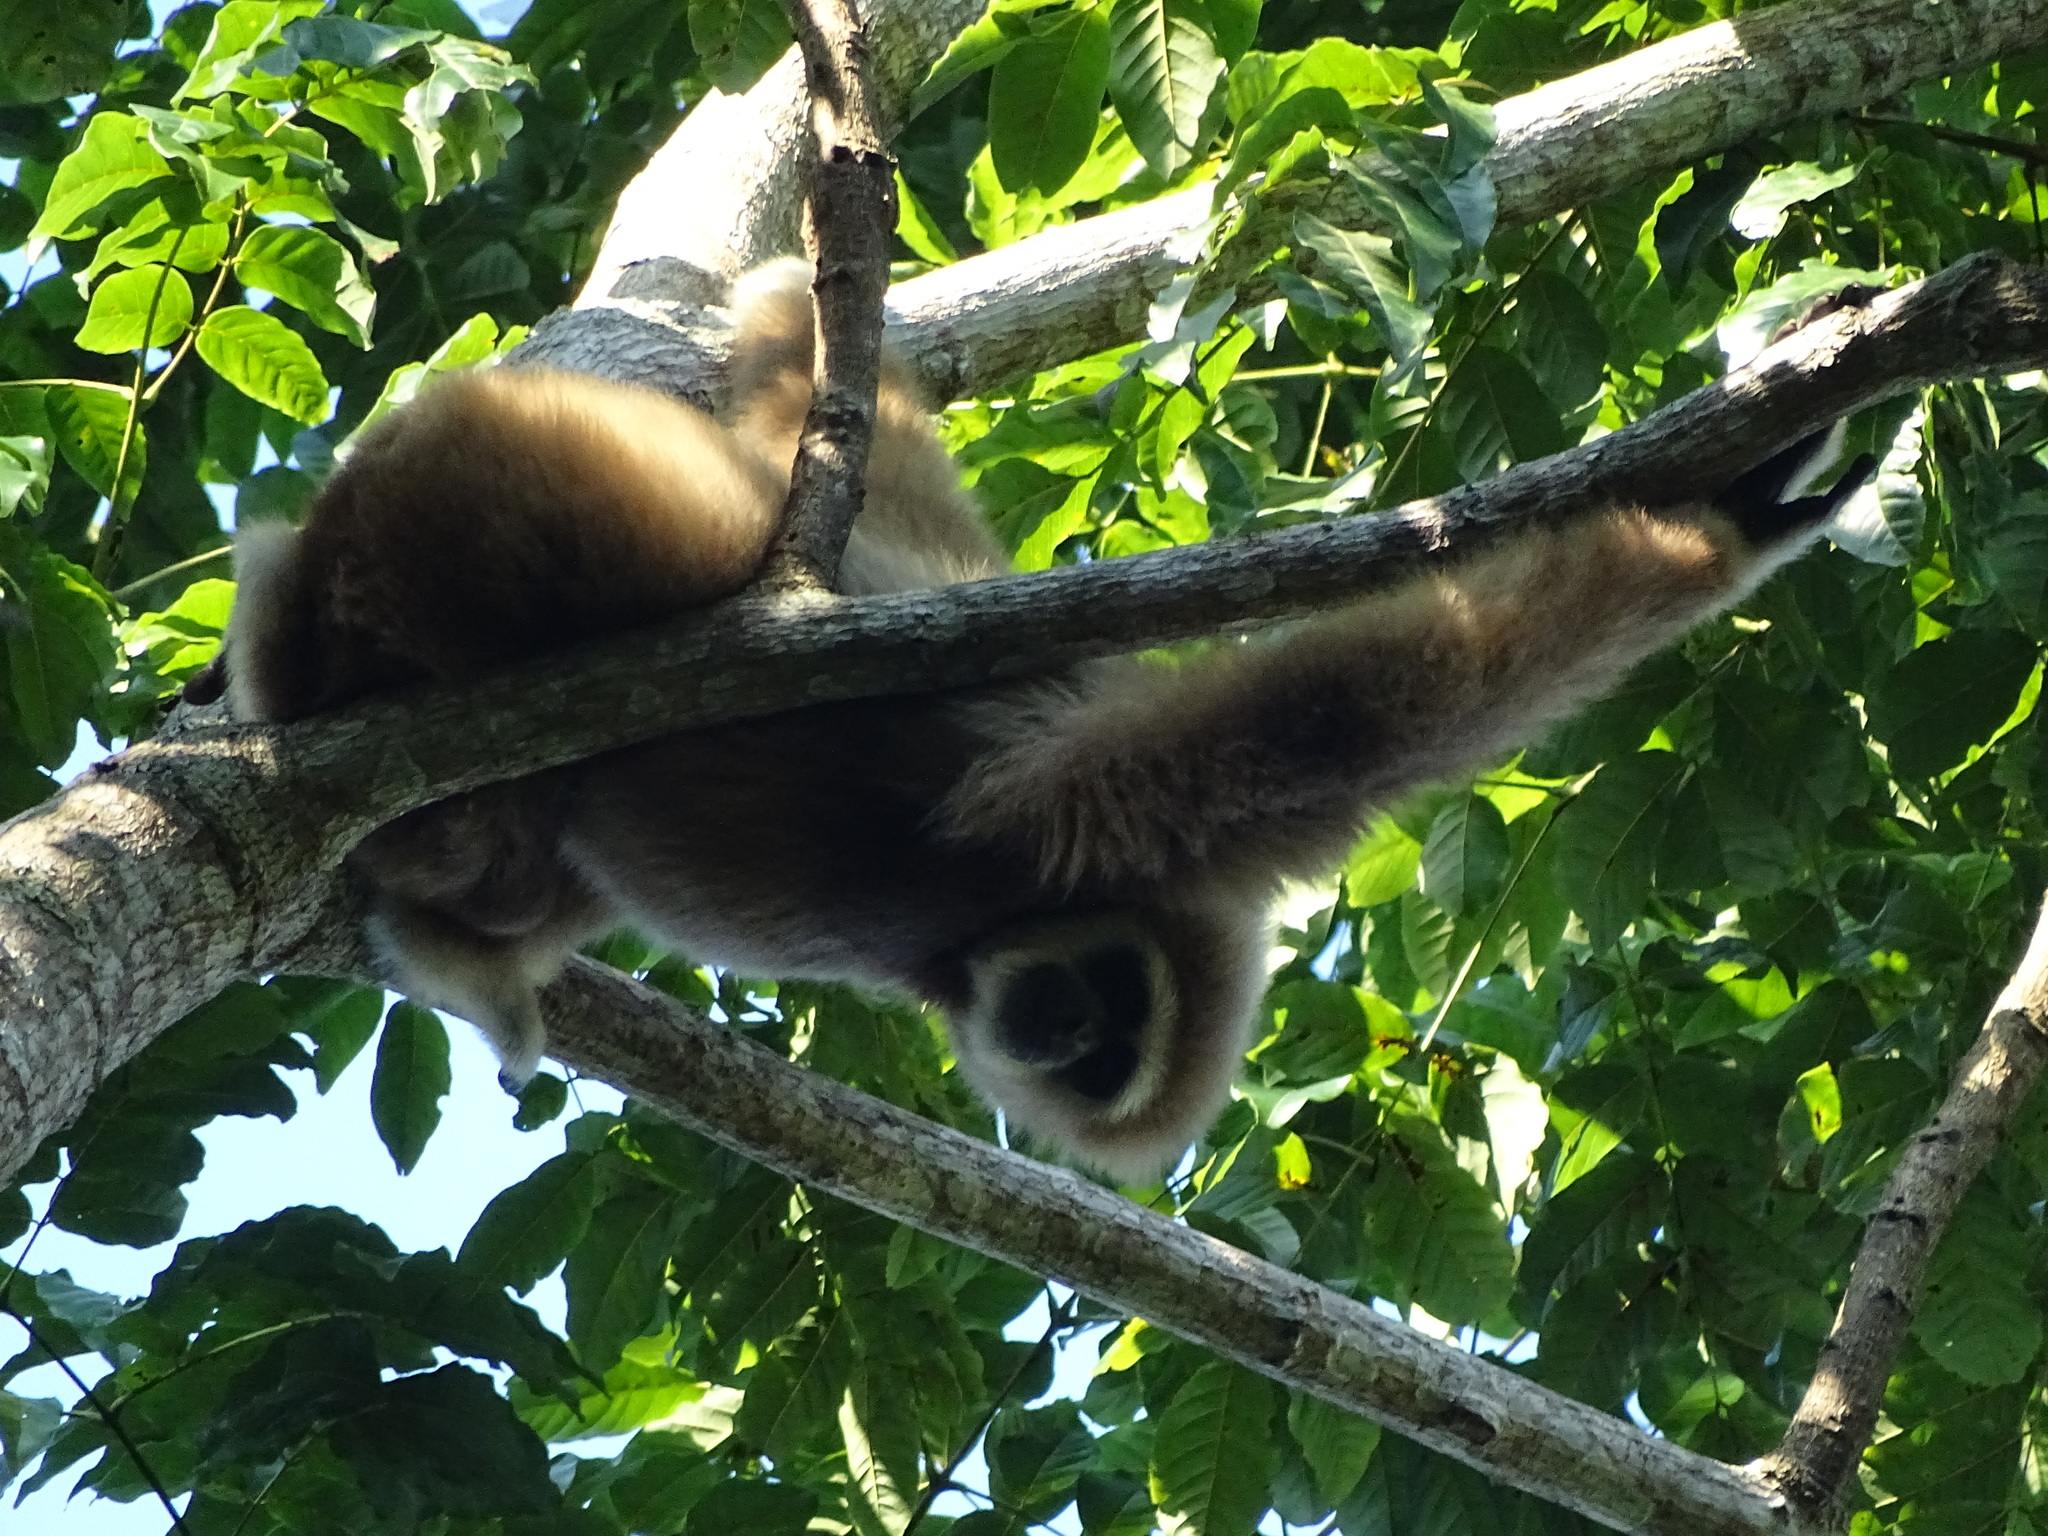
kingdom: Animalia
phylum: Chordata
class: Mammalia
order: Primates
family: Hylobatidae
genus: Hylobates
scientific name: Hylobates lar
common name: Lar gibbon
